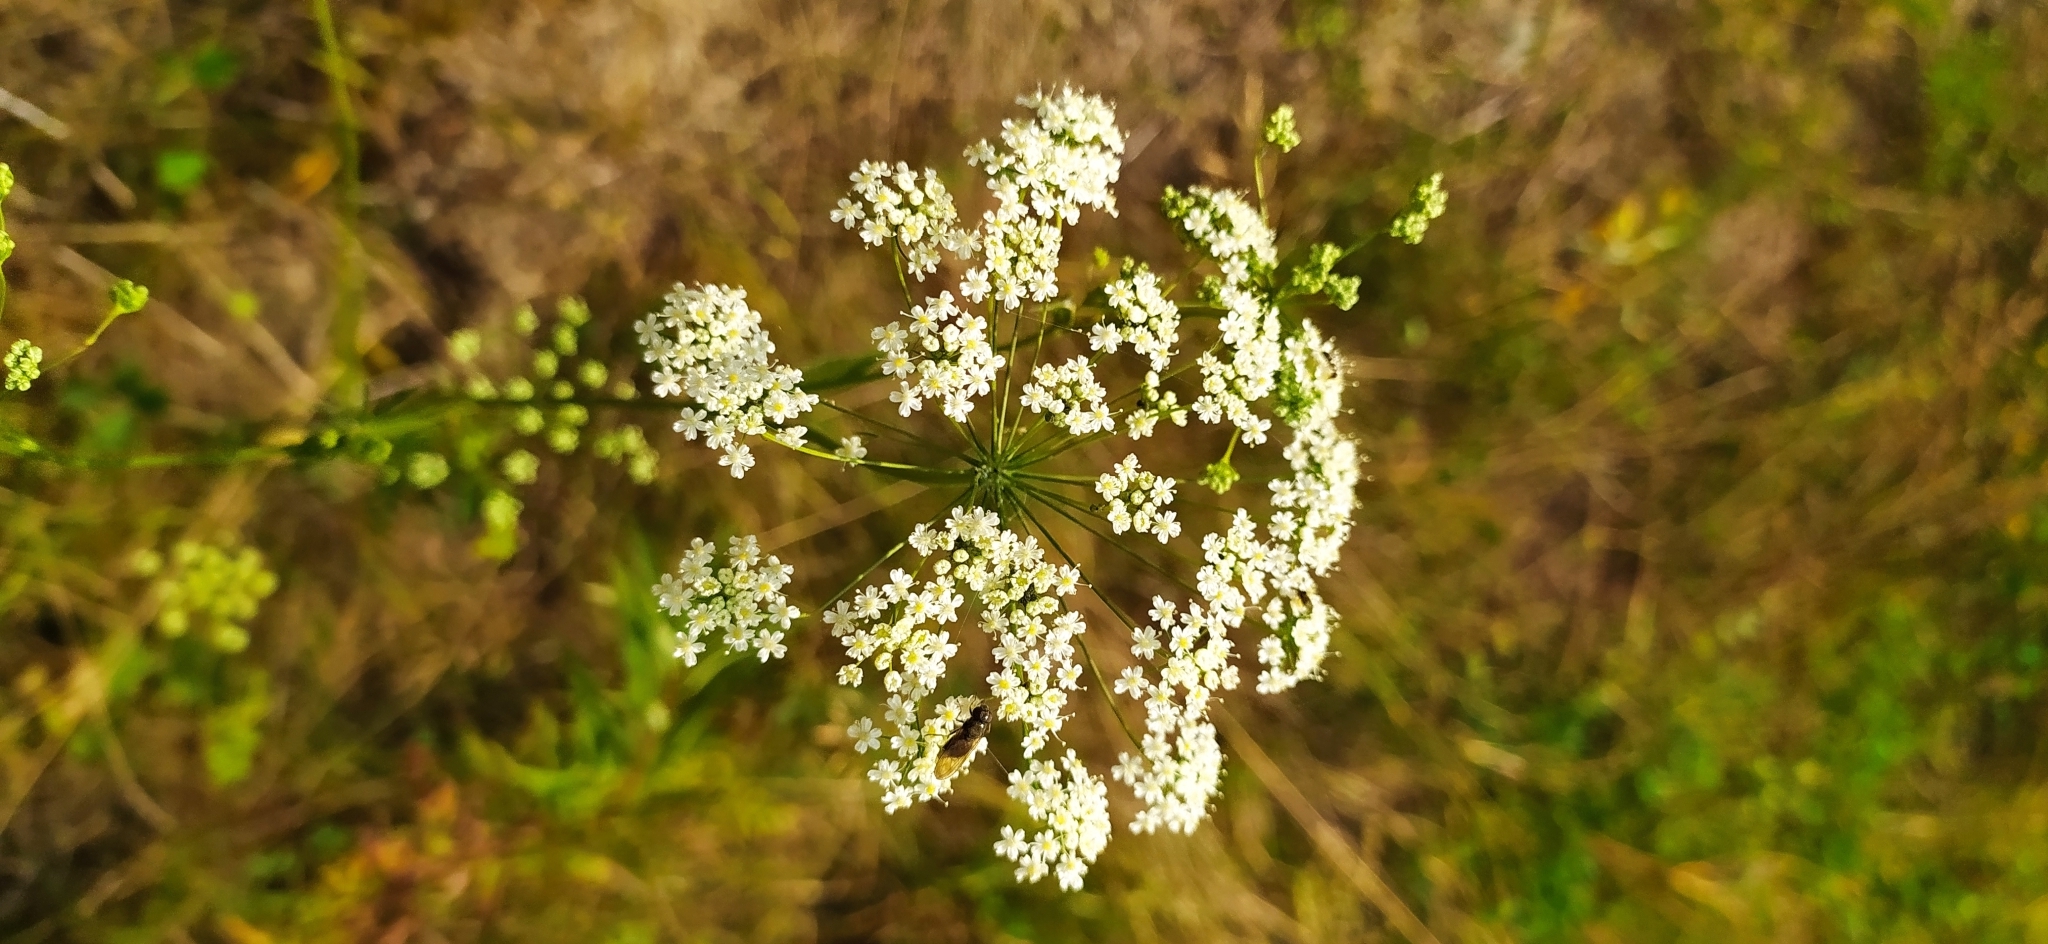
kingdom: Plantae
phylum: Tracheophyta
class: Magnoliopsida
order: Apiales
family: Apiaceae
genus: Pimpinella
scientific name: Pimpinella saxifraga
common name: Burnet-saxifrage
